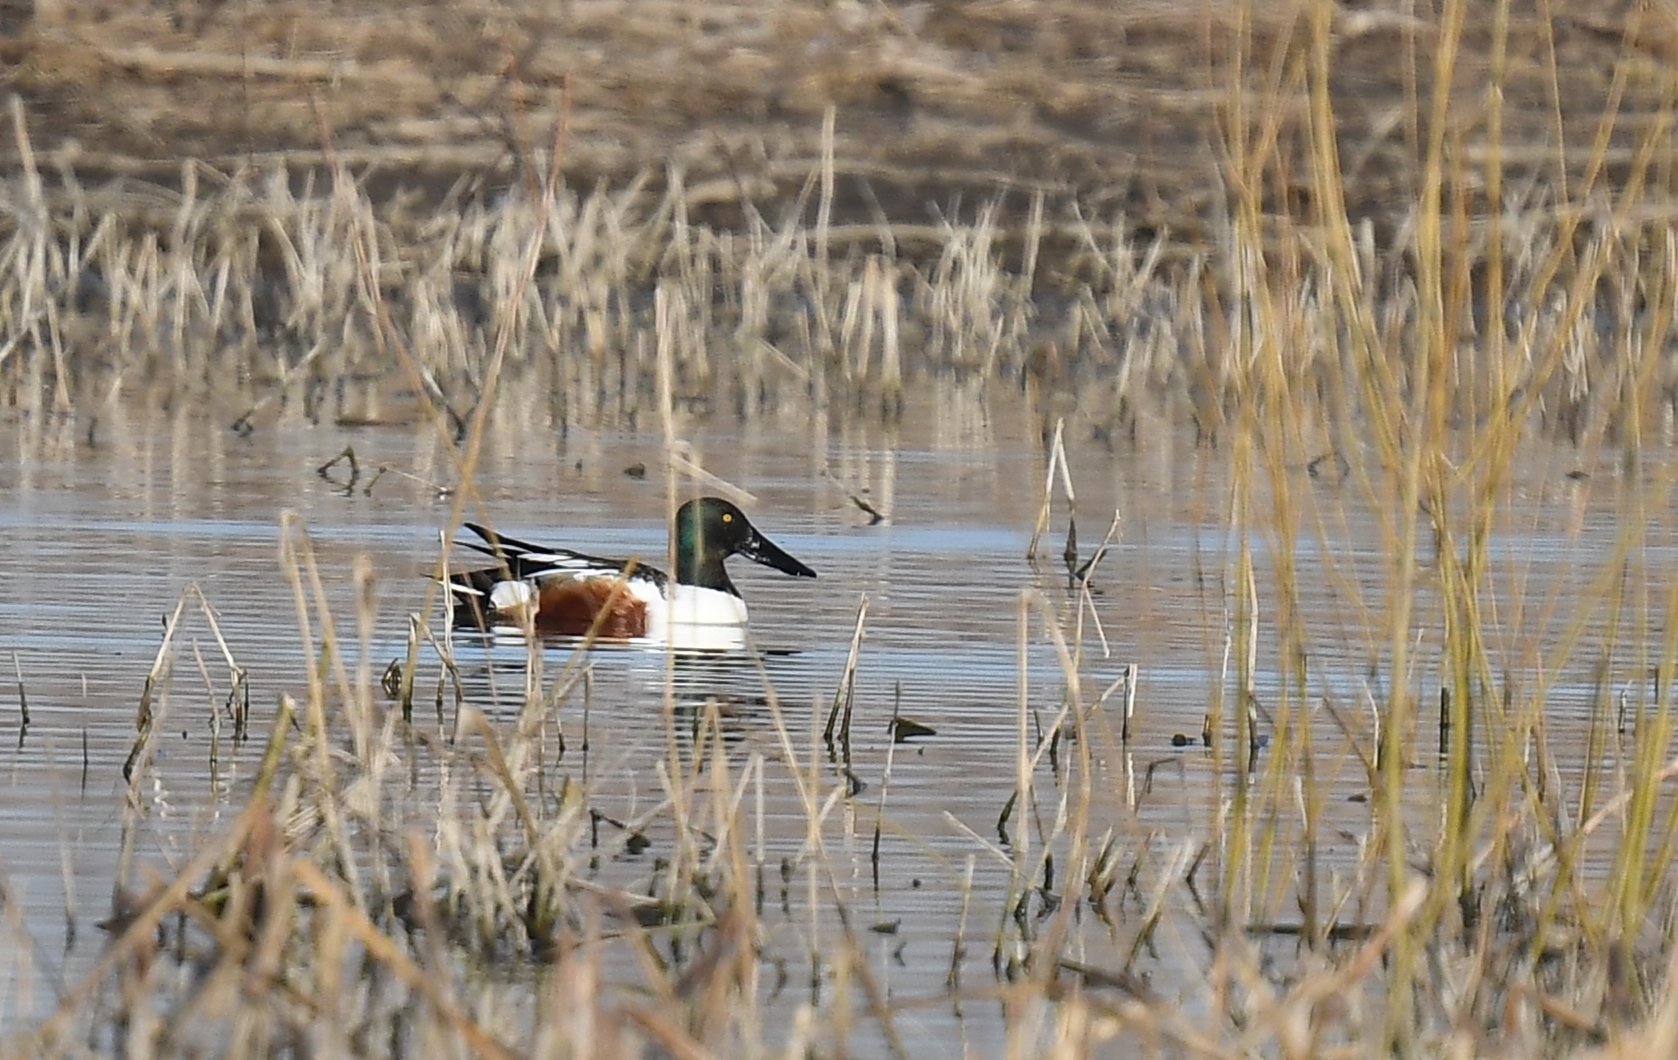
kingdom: Animalia
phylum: Chordata
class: Aves
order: Anseriformes
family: Anatidae
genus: Spatula
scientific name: Spatula clypeata
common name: Northern shoveler
